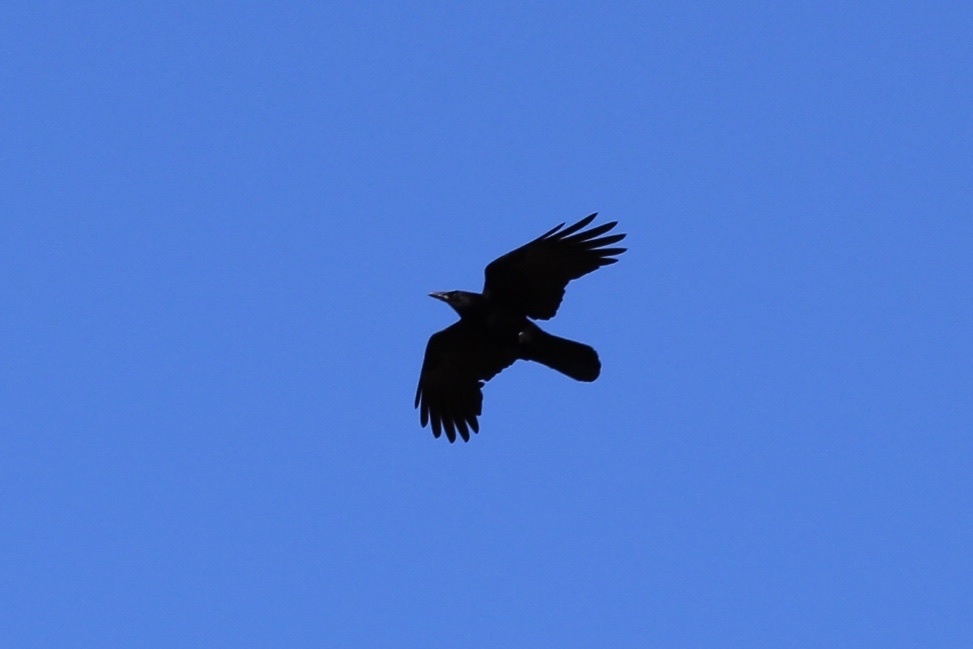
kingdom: Animalia
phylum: Chordata
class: Aves
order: Passeriformes
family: Corvidae
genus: Corvus
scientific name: Corvus corax
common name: Common raven
